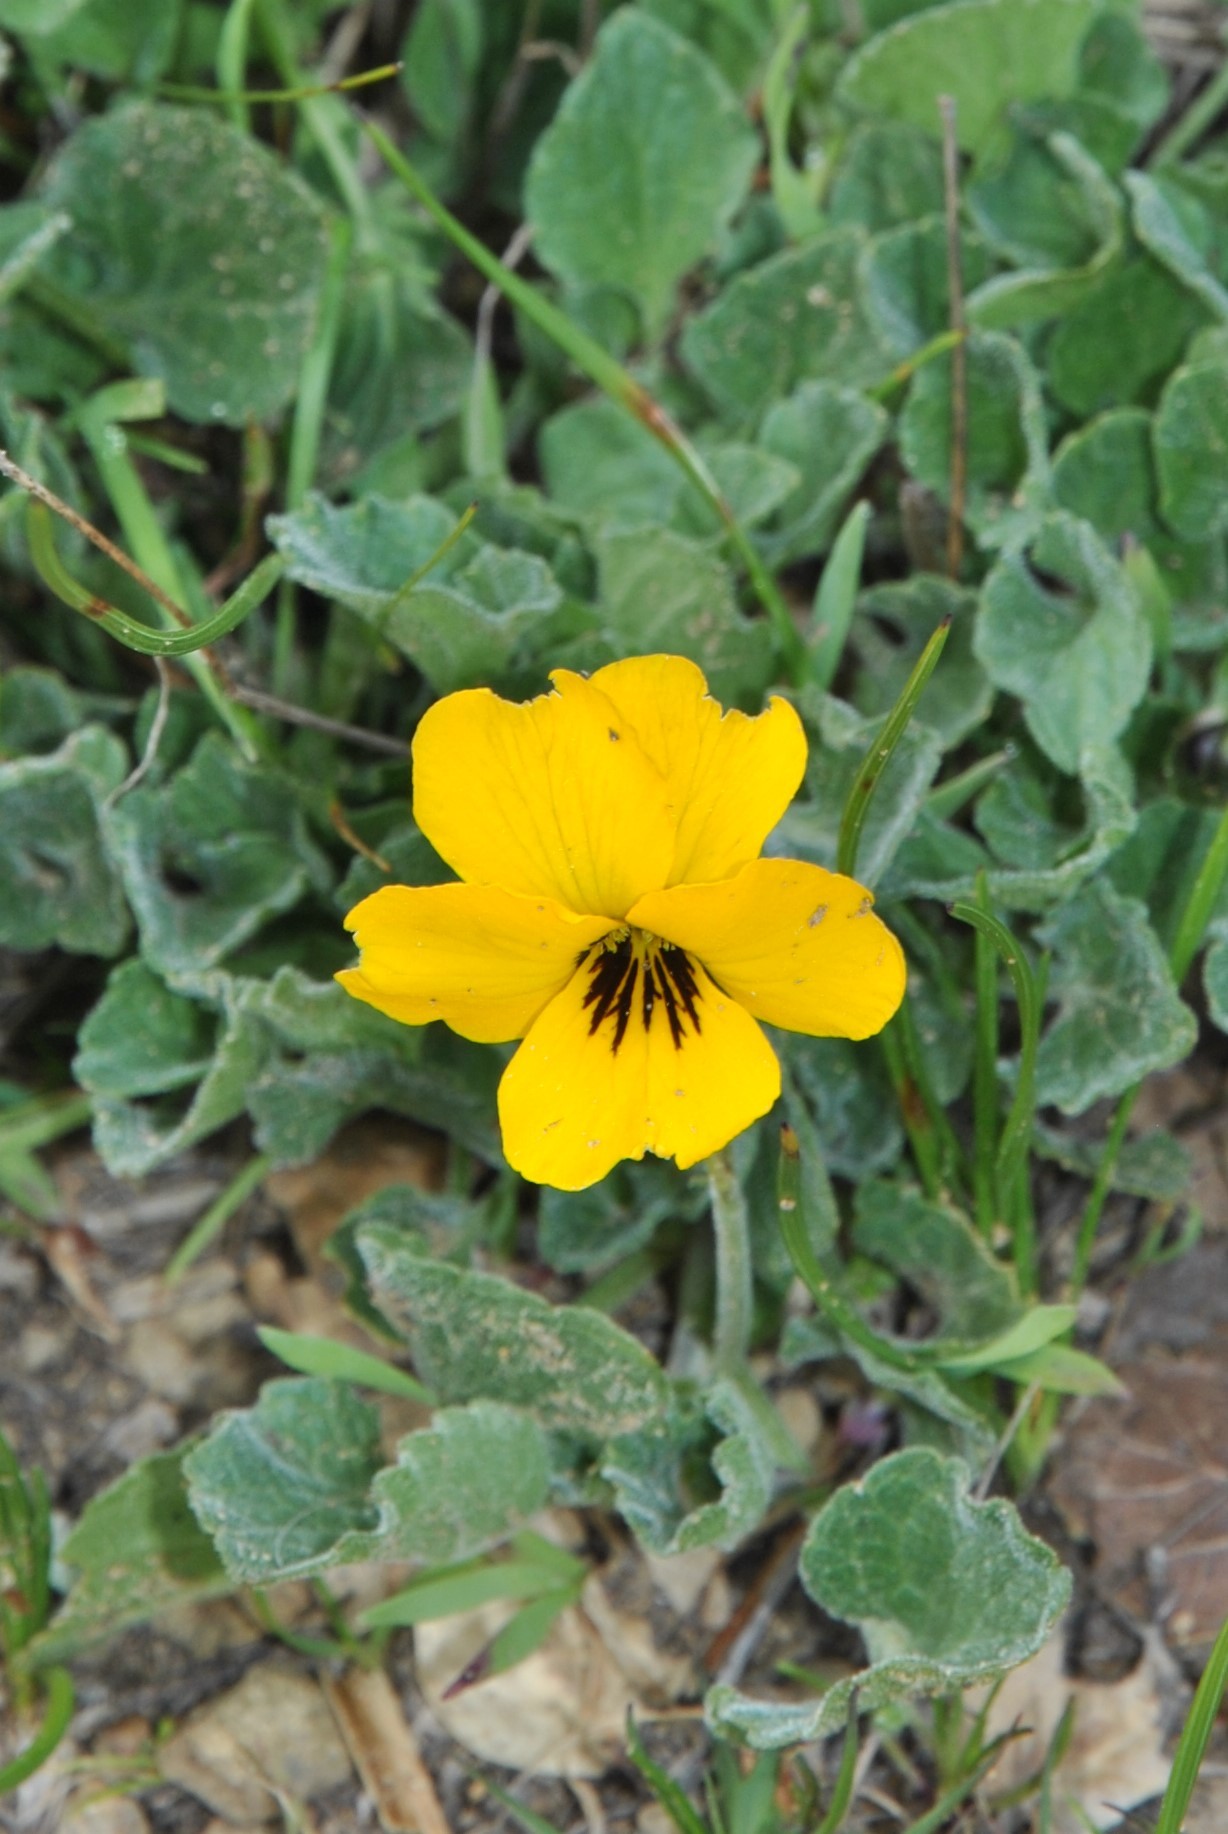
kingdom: Plantae
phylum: Tracheophyta
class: Magnoliopsida
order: Malpighiales
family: Violaceae
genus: Viola
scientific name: Viola pedunculata
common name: California golden violet
